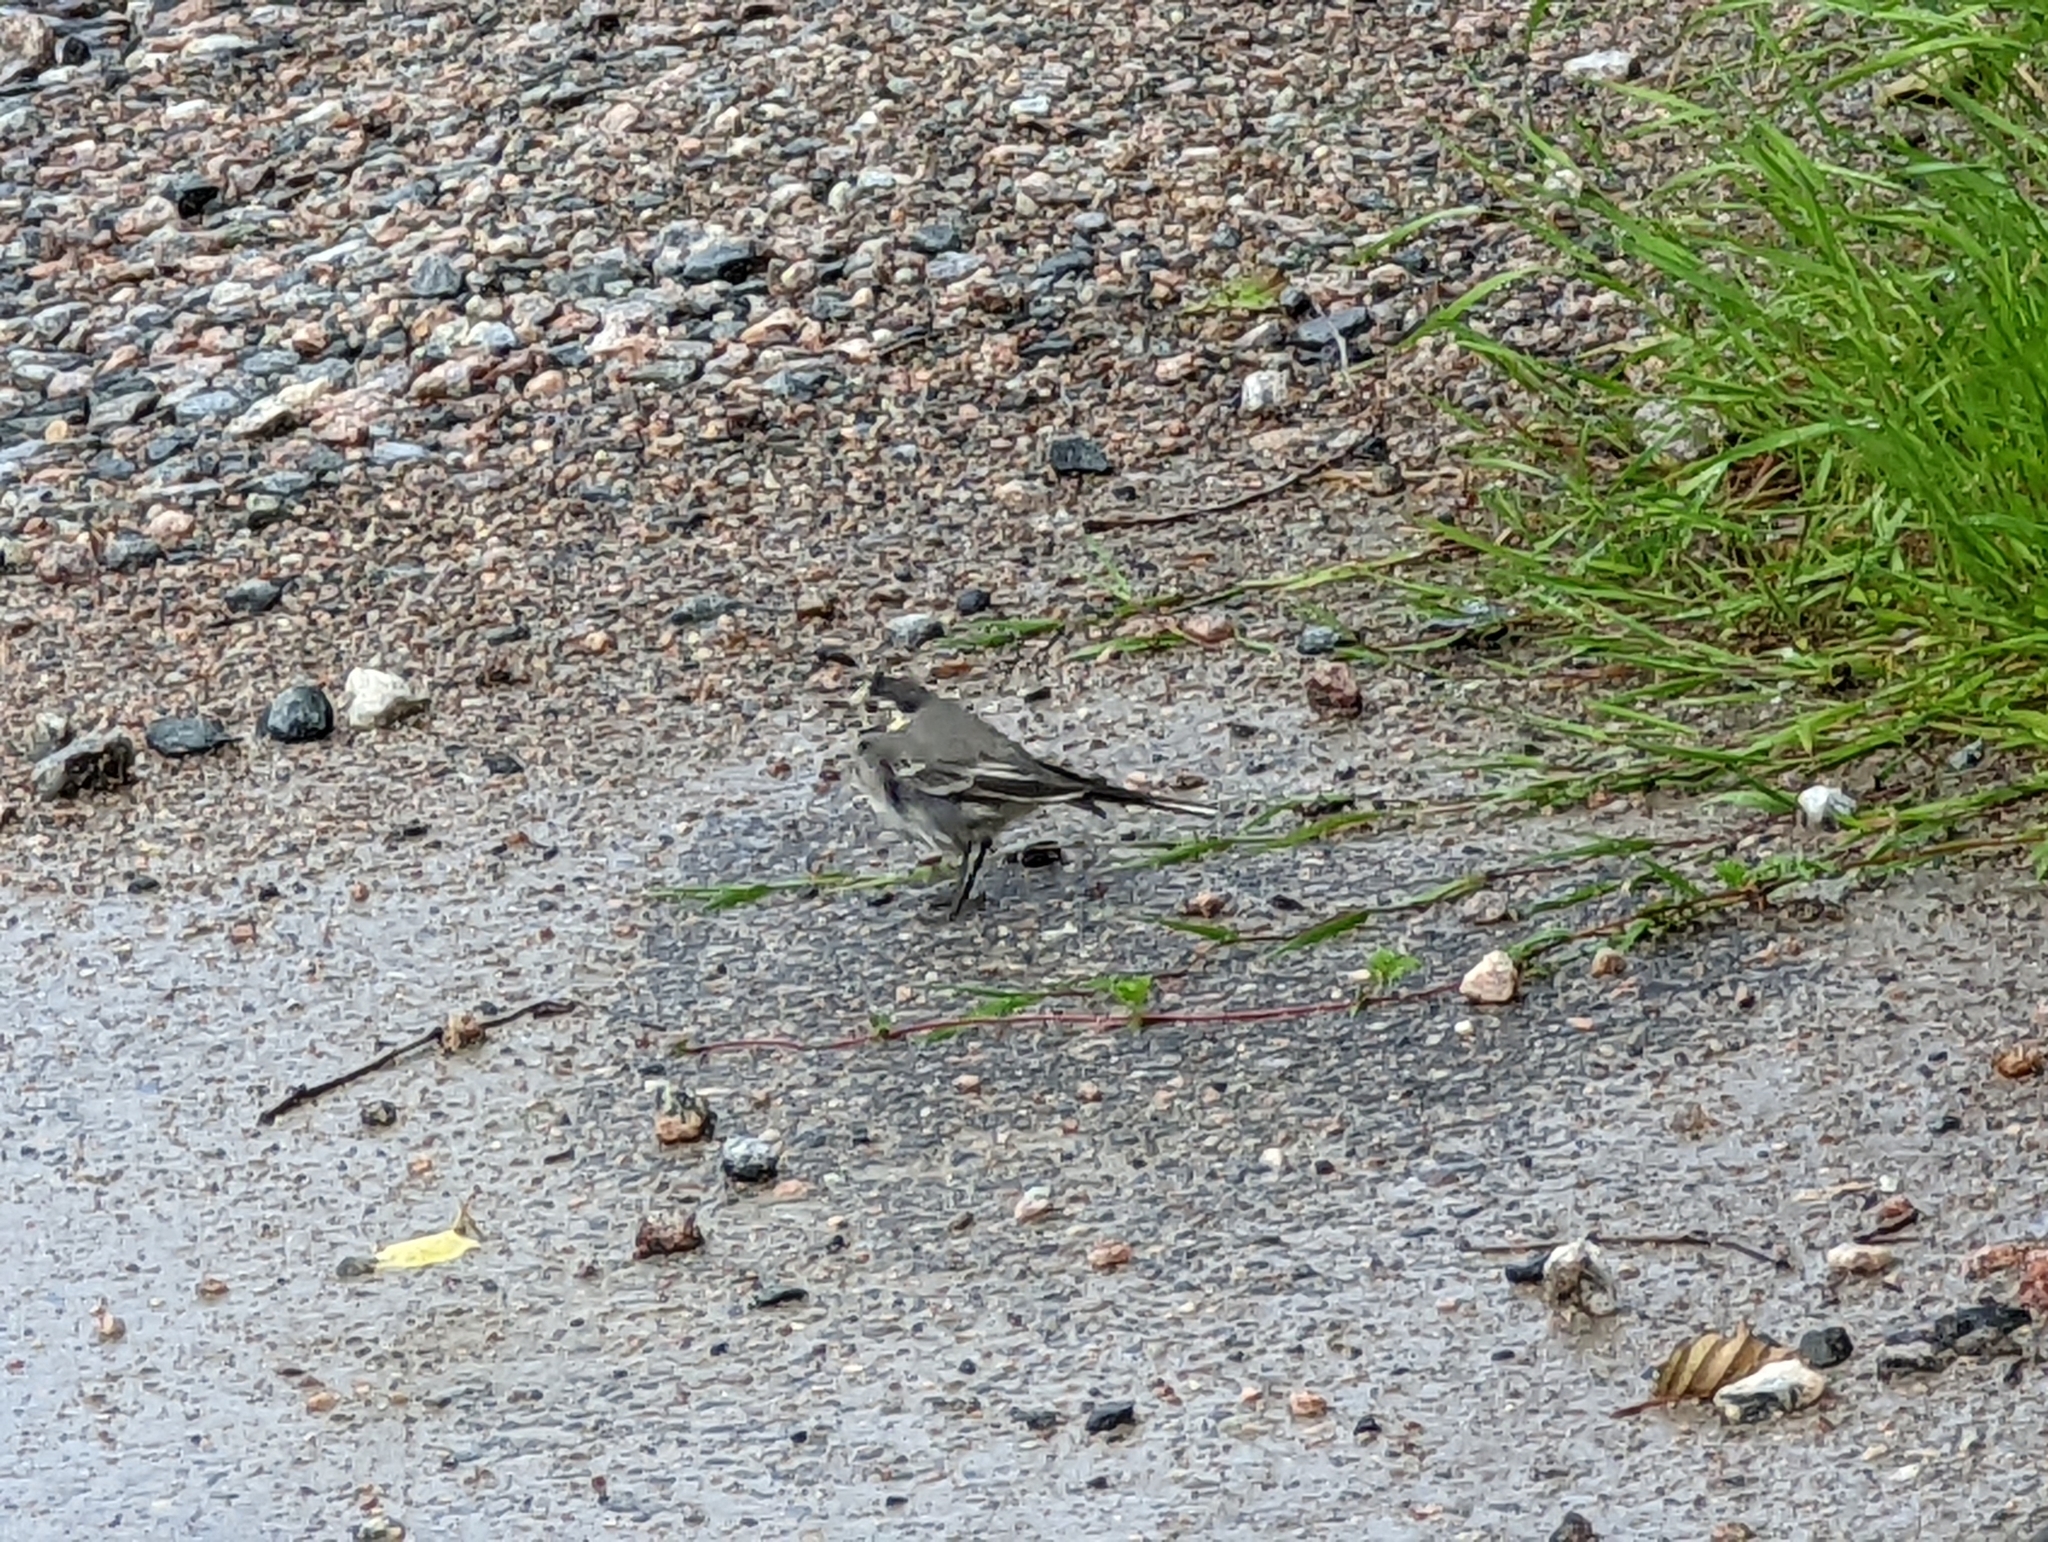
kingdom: Animalia
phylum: Chordata
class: Aves
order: Passeriformes
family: Motacillidae
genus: Motacilla
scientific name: Motacilla alba
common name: White wagtail
